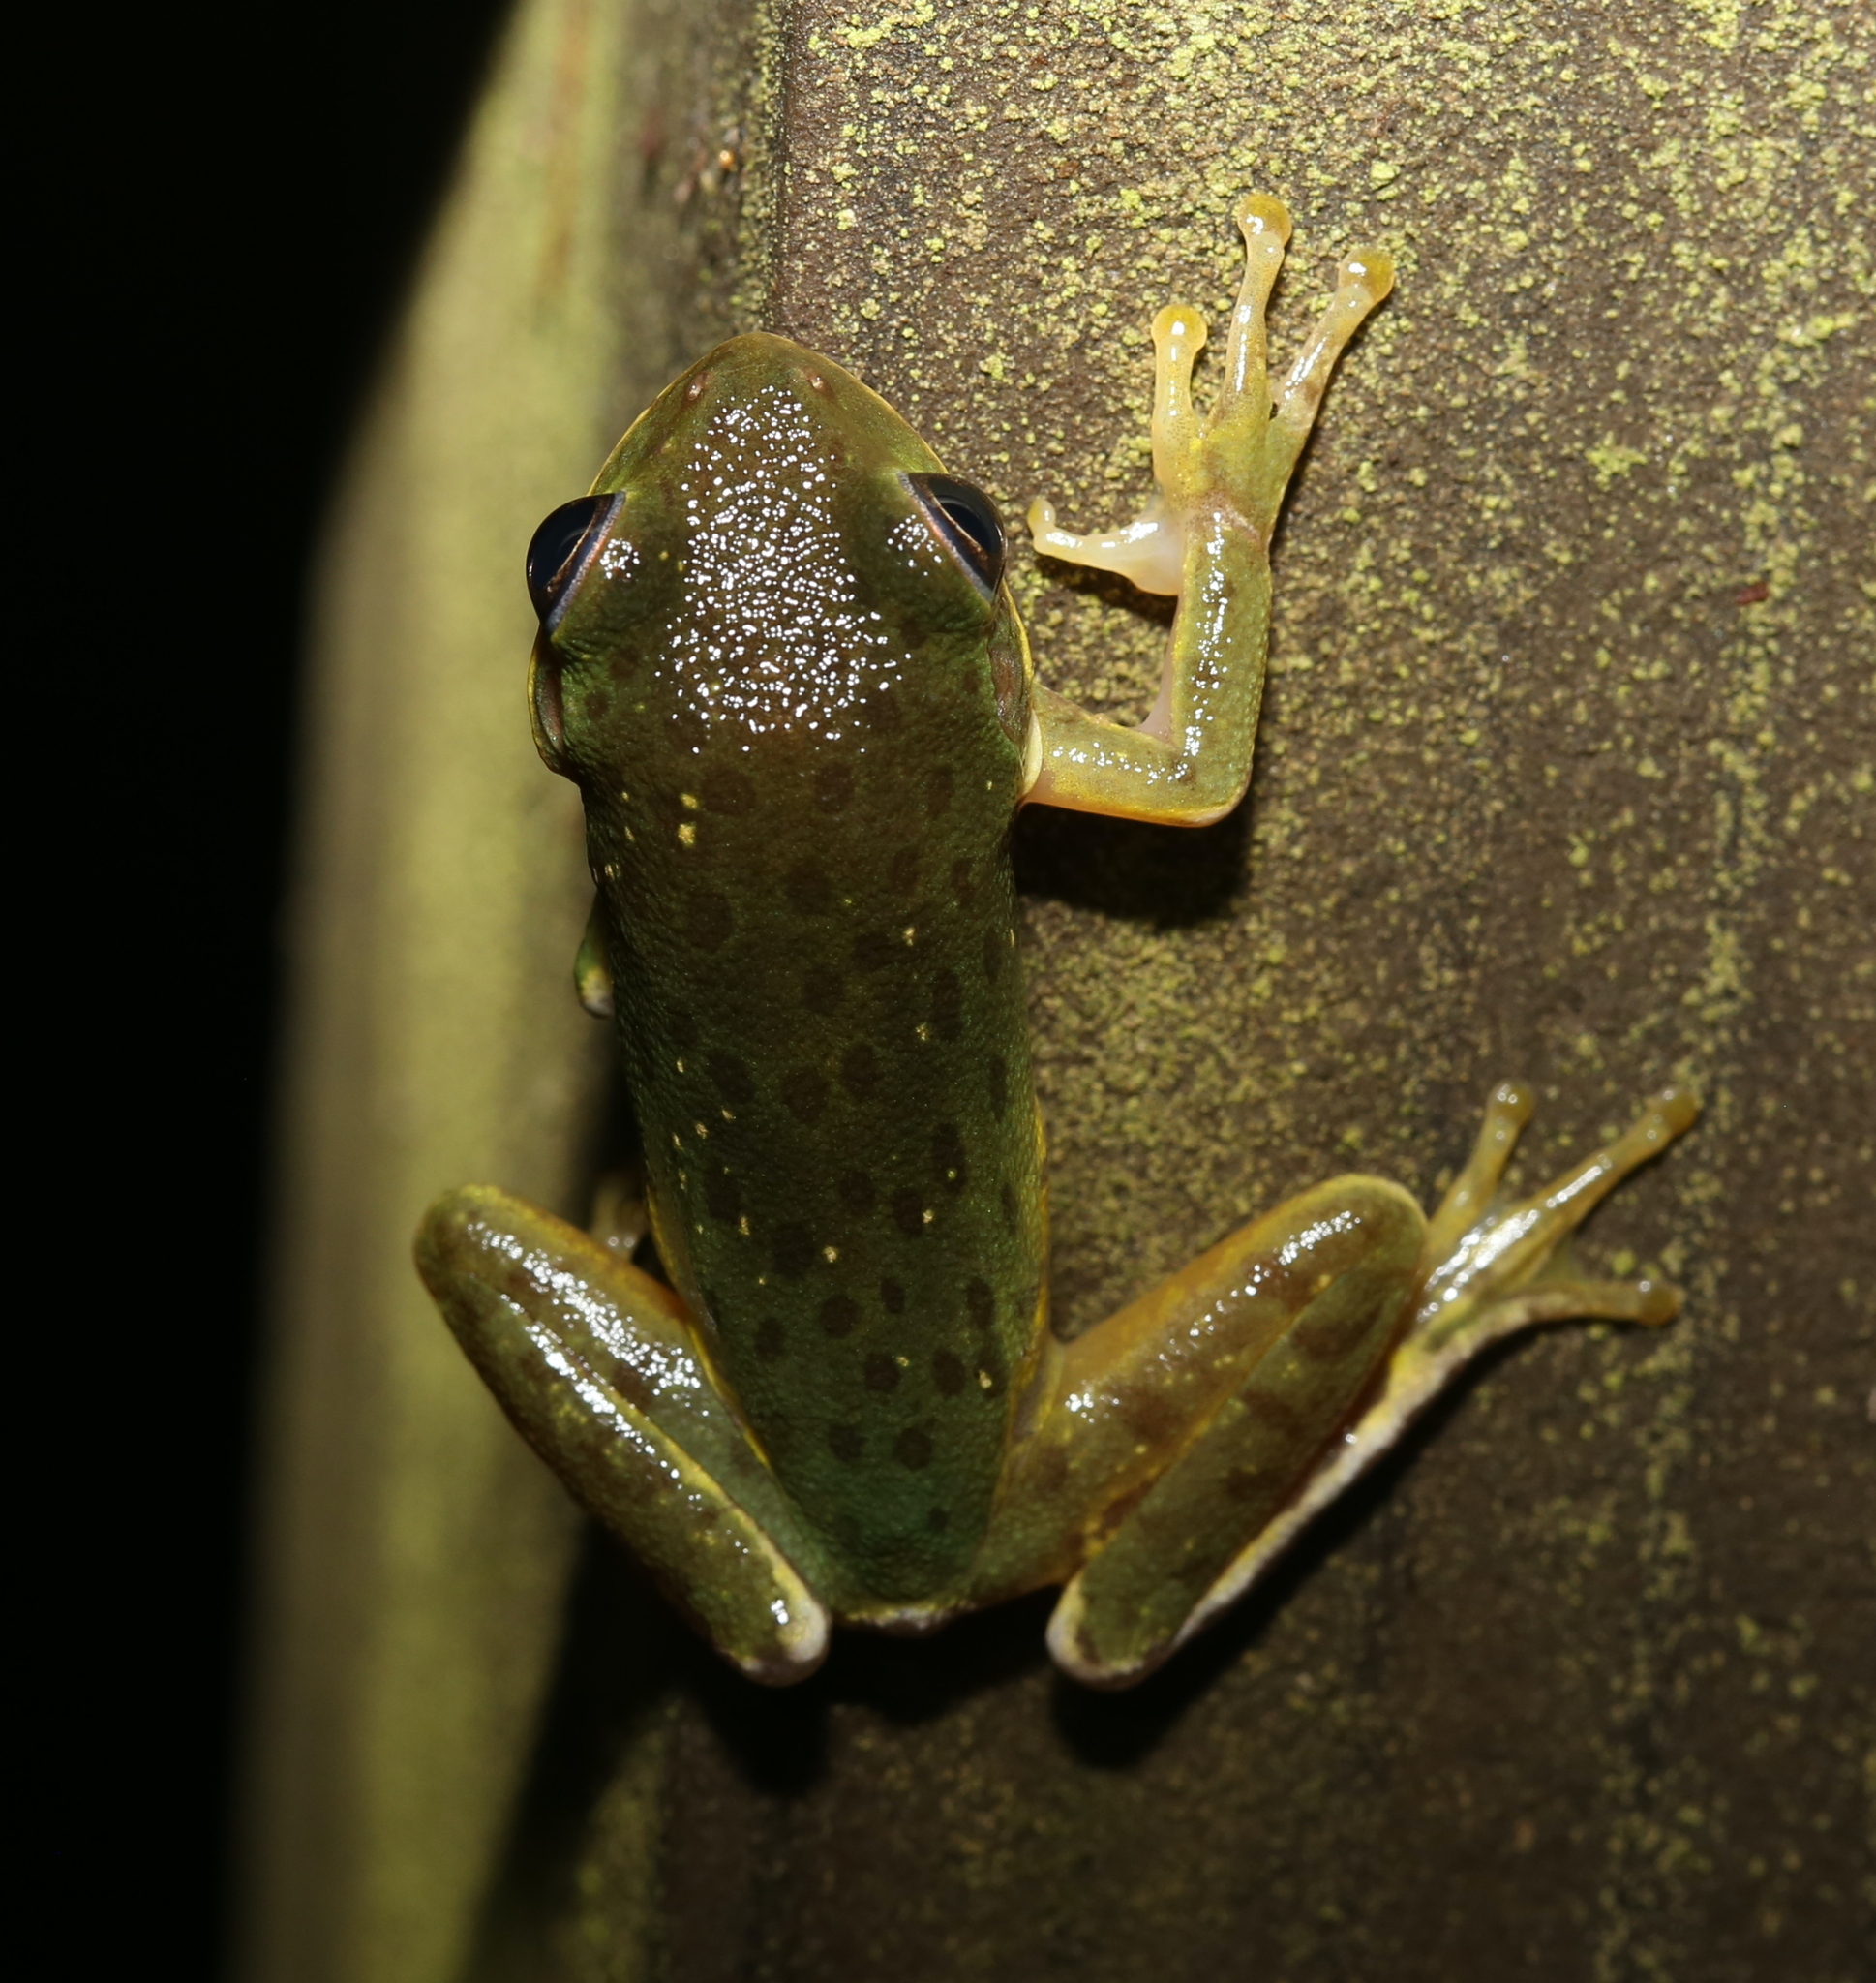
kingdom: Animalia
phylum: Chordata
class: Amphibia
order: Anura
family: Hylidae
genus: Dryophytes
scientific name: Dryophytes gratiosus
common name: Barking treefrog
